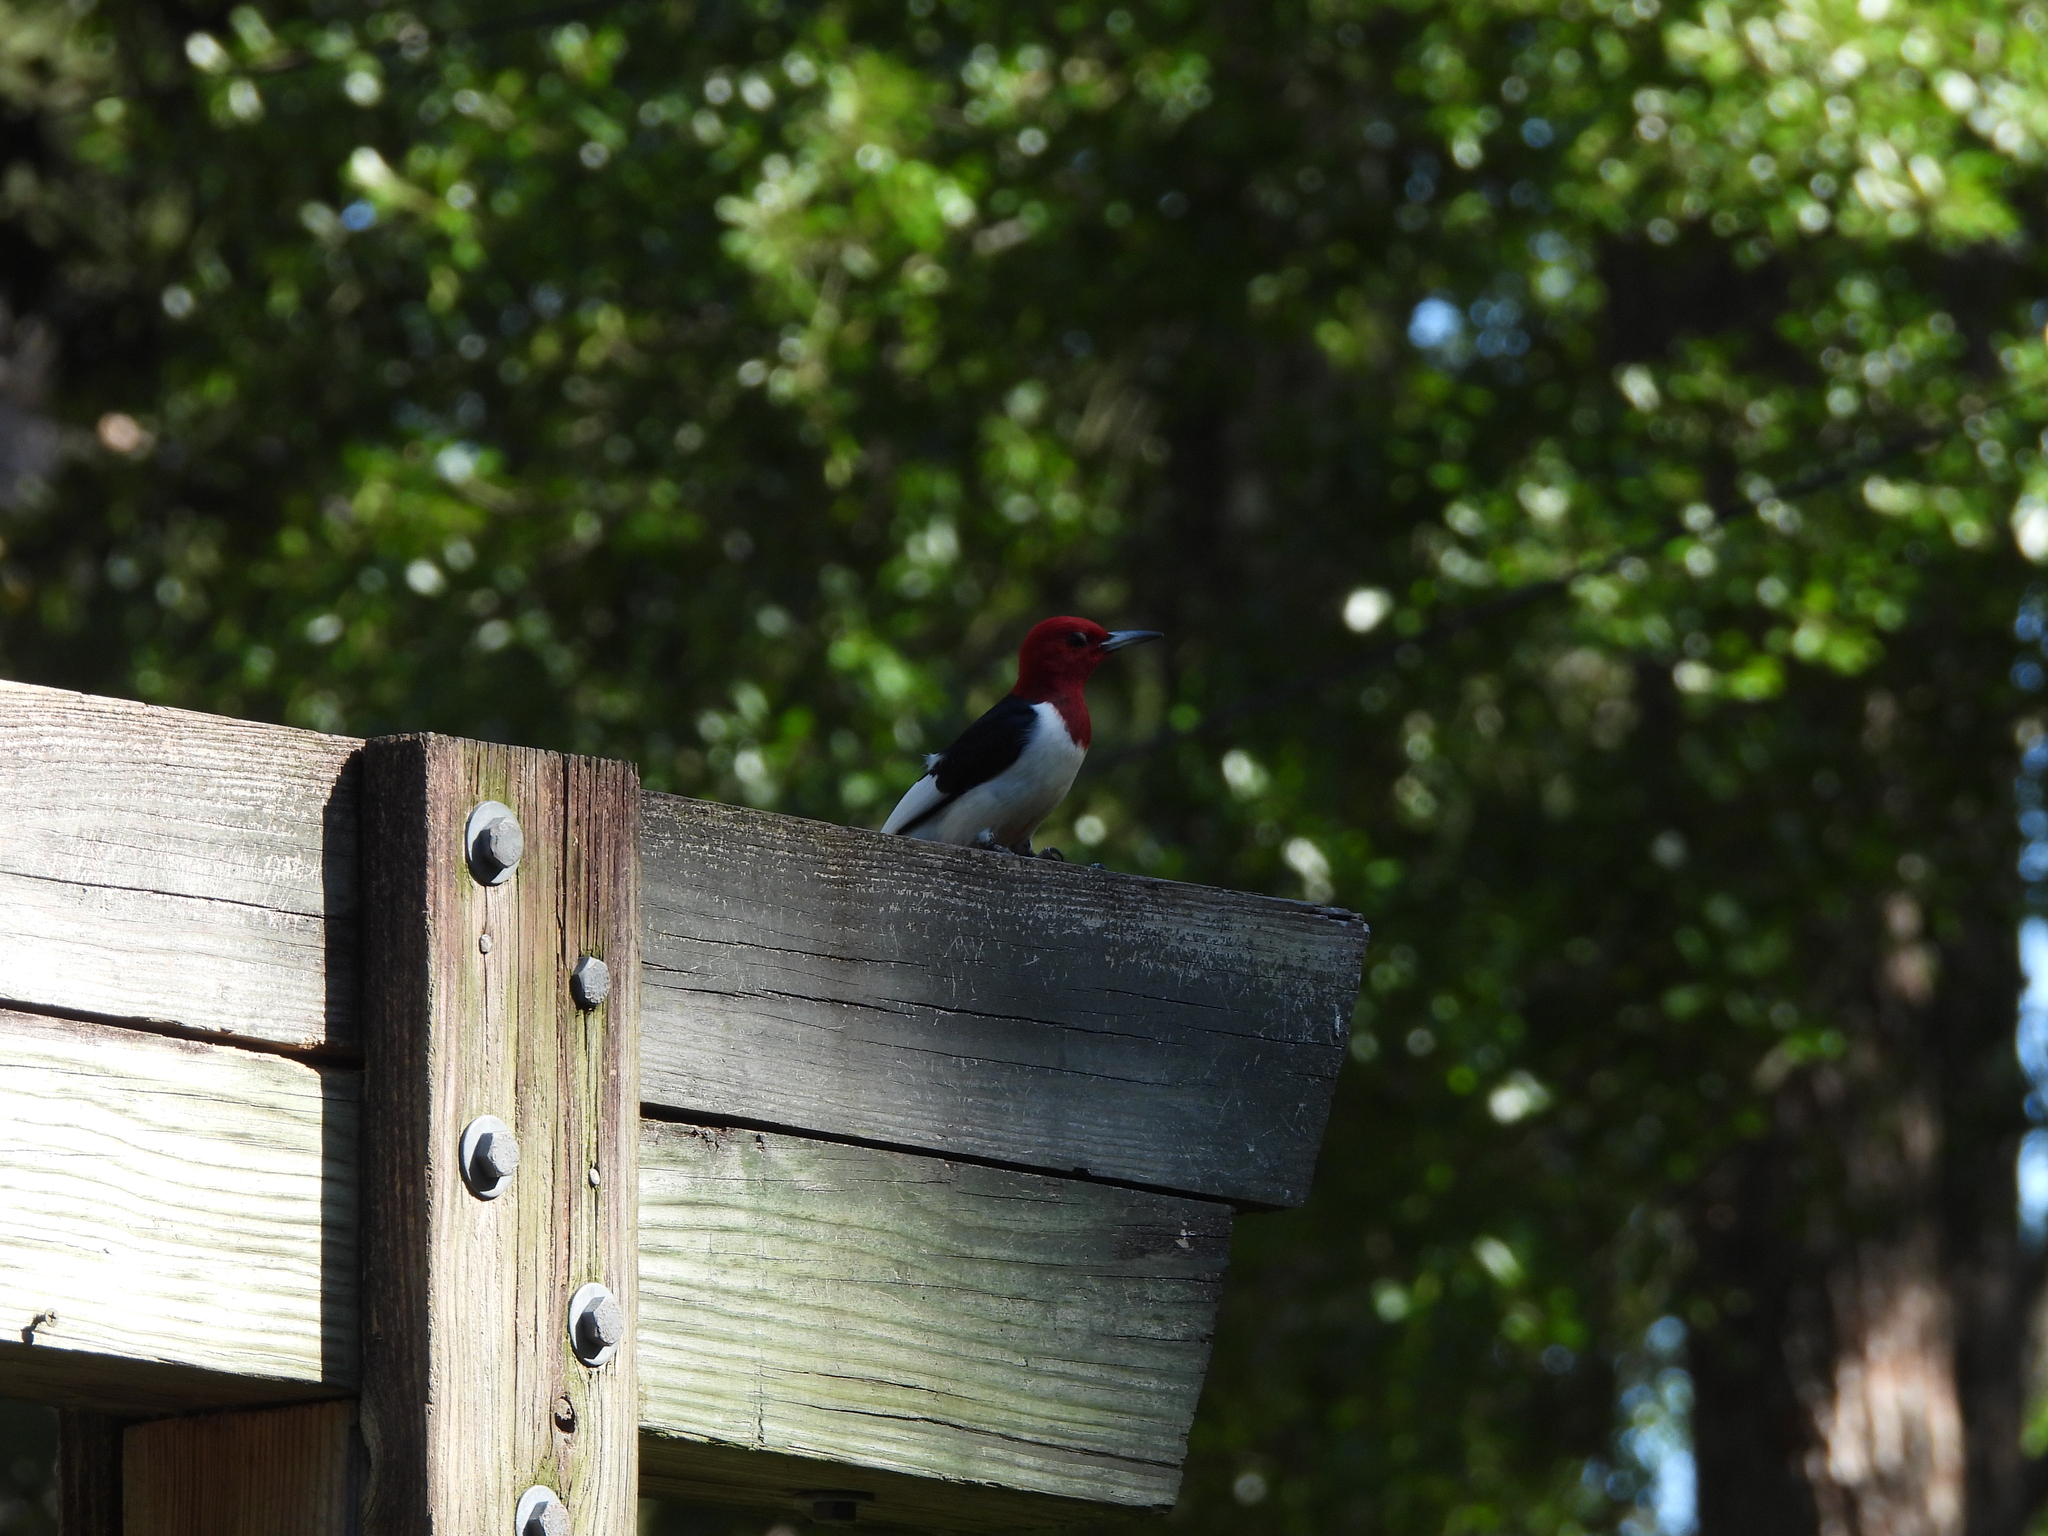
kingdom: Animalia
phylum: Chordata
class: Aves
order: Piciformes
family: Picidae
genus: Melanerpes
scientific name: Melanerpes erythrocephalus
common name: Red-headed woodpecker
